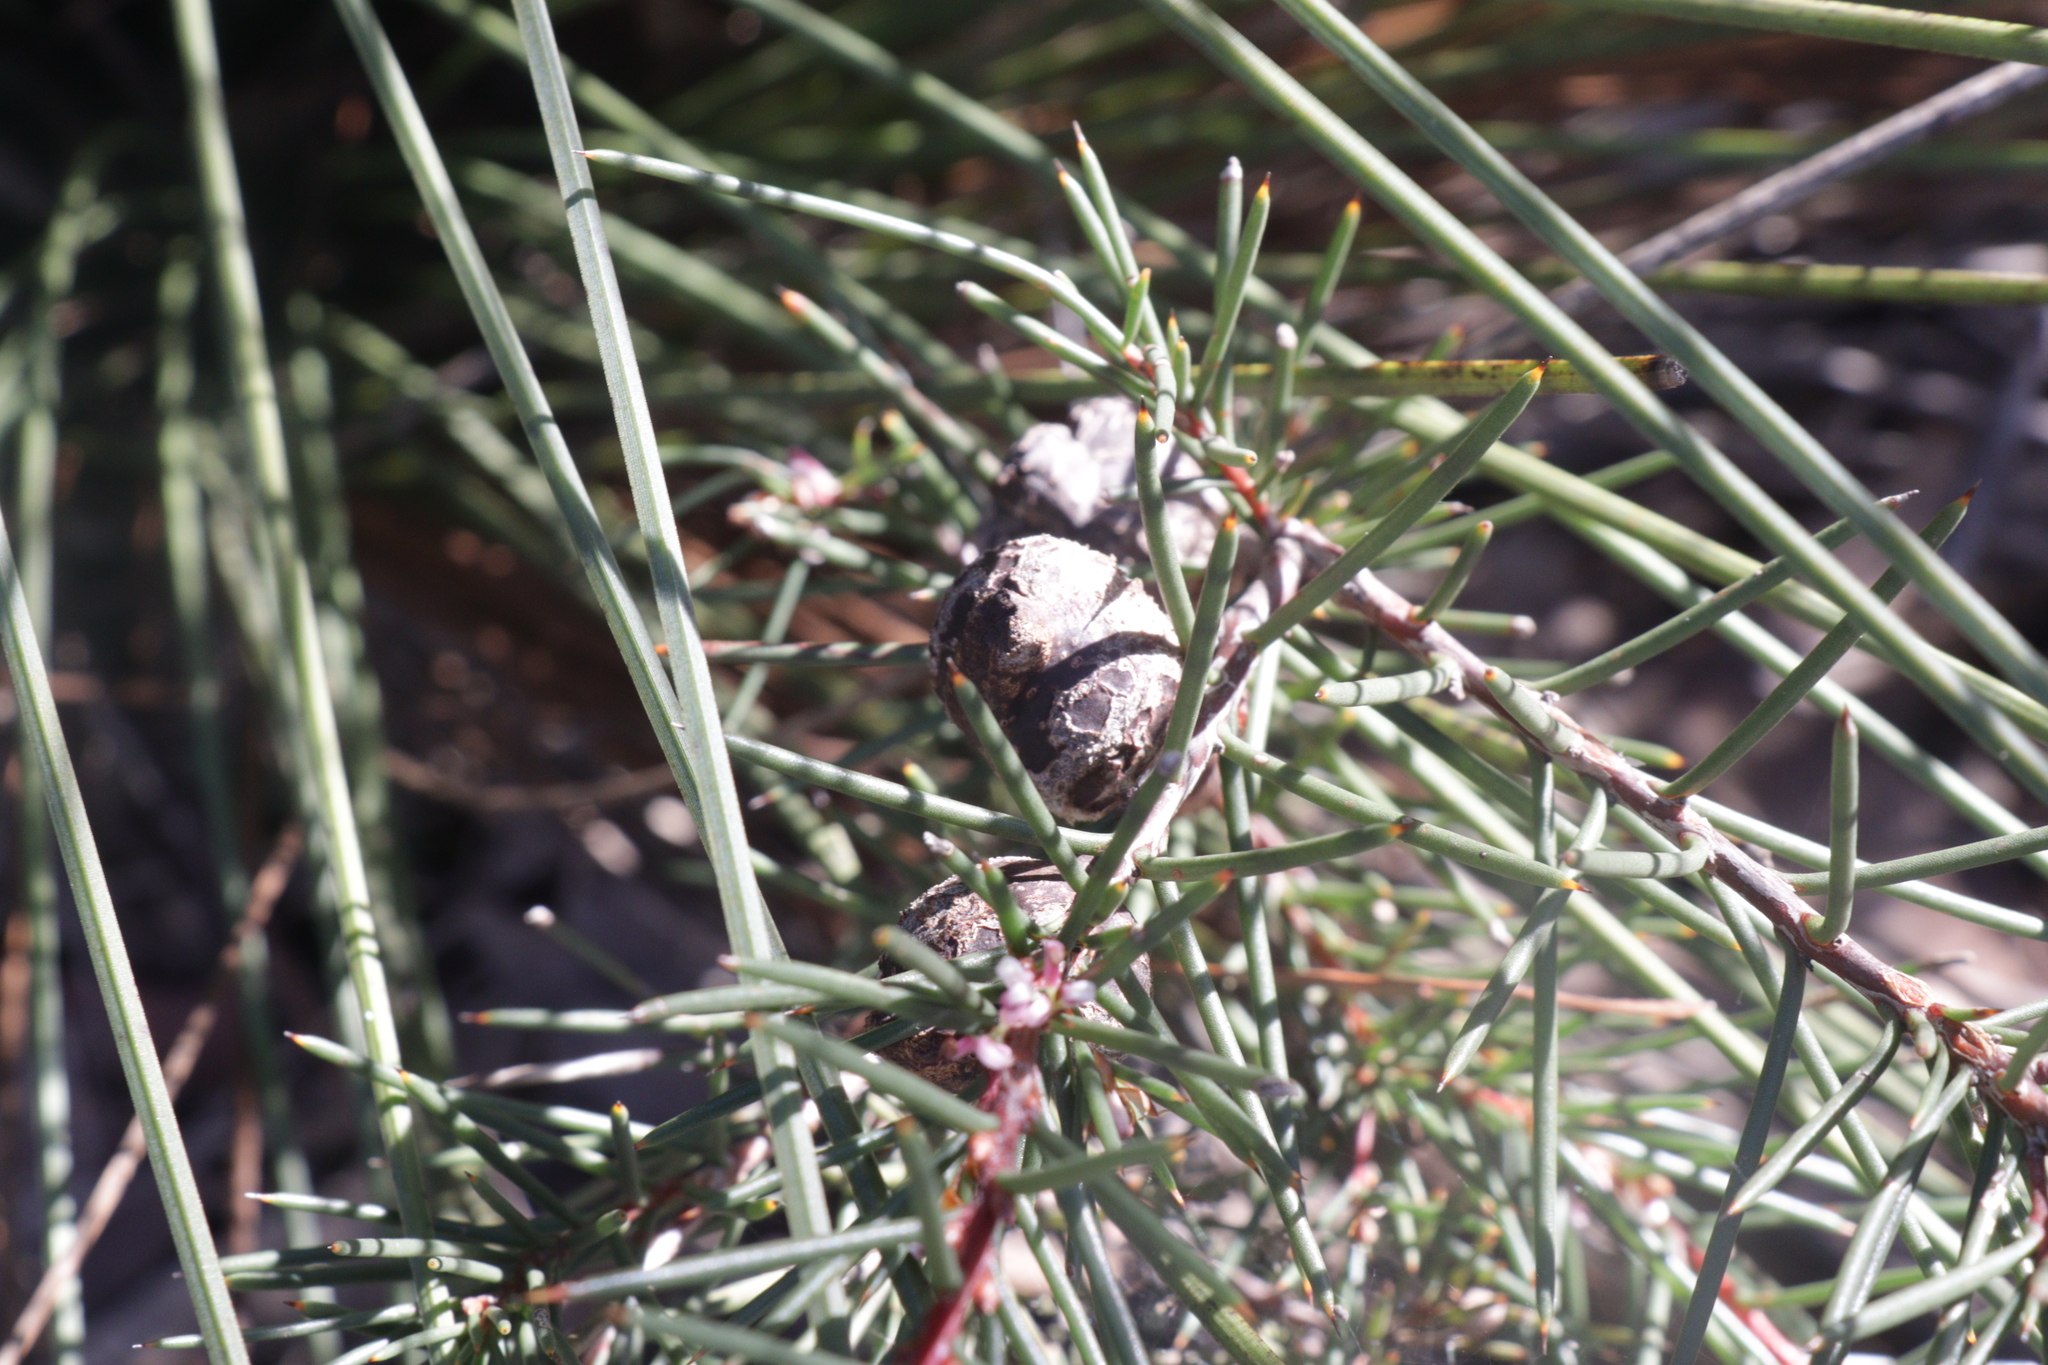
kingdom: Plantae
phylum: Tracheophyta
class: Magnoliopsida
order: Proteales
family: Proteaceae
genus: Hakea
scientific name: Hakea decurrens
